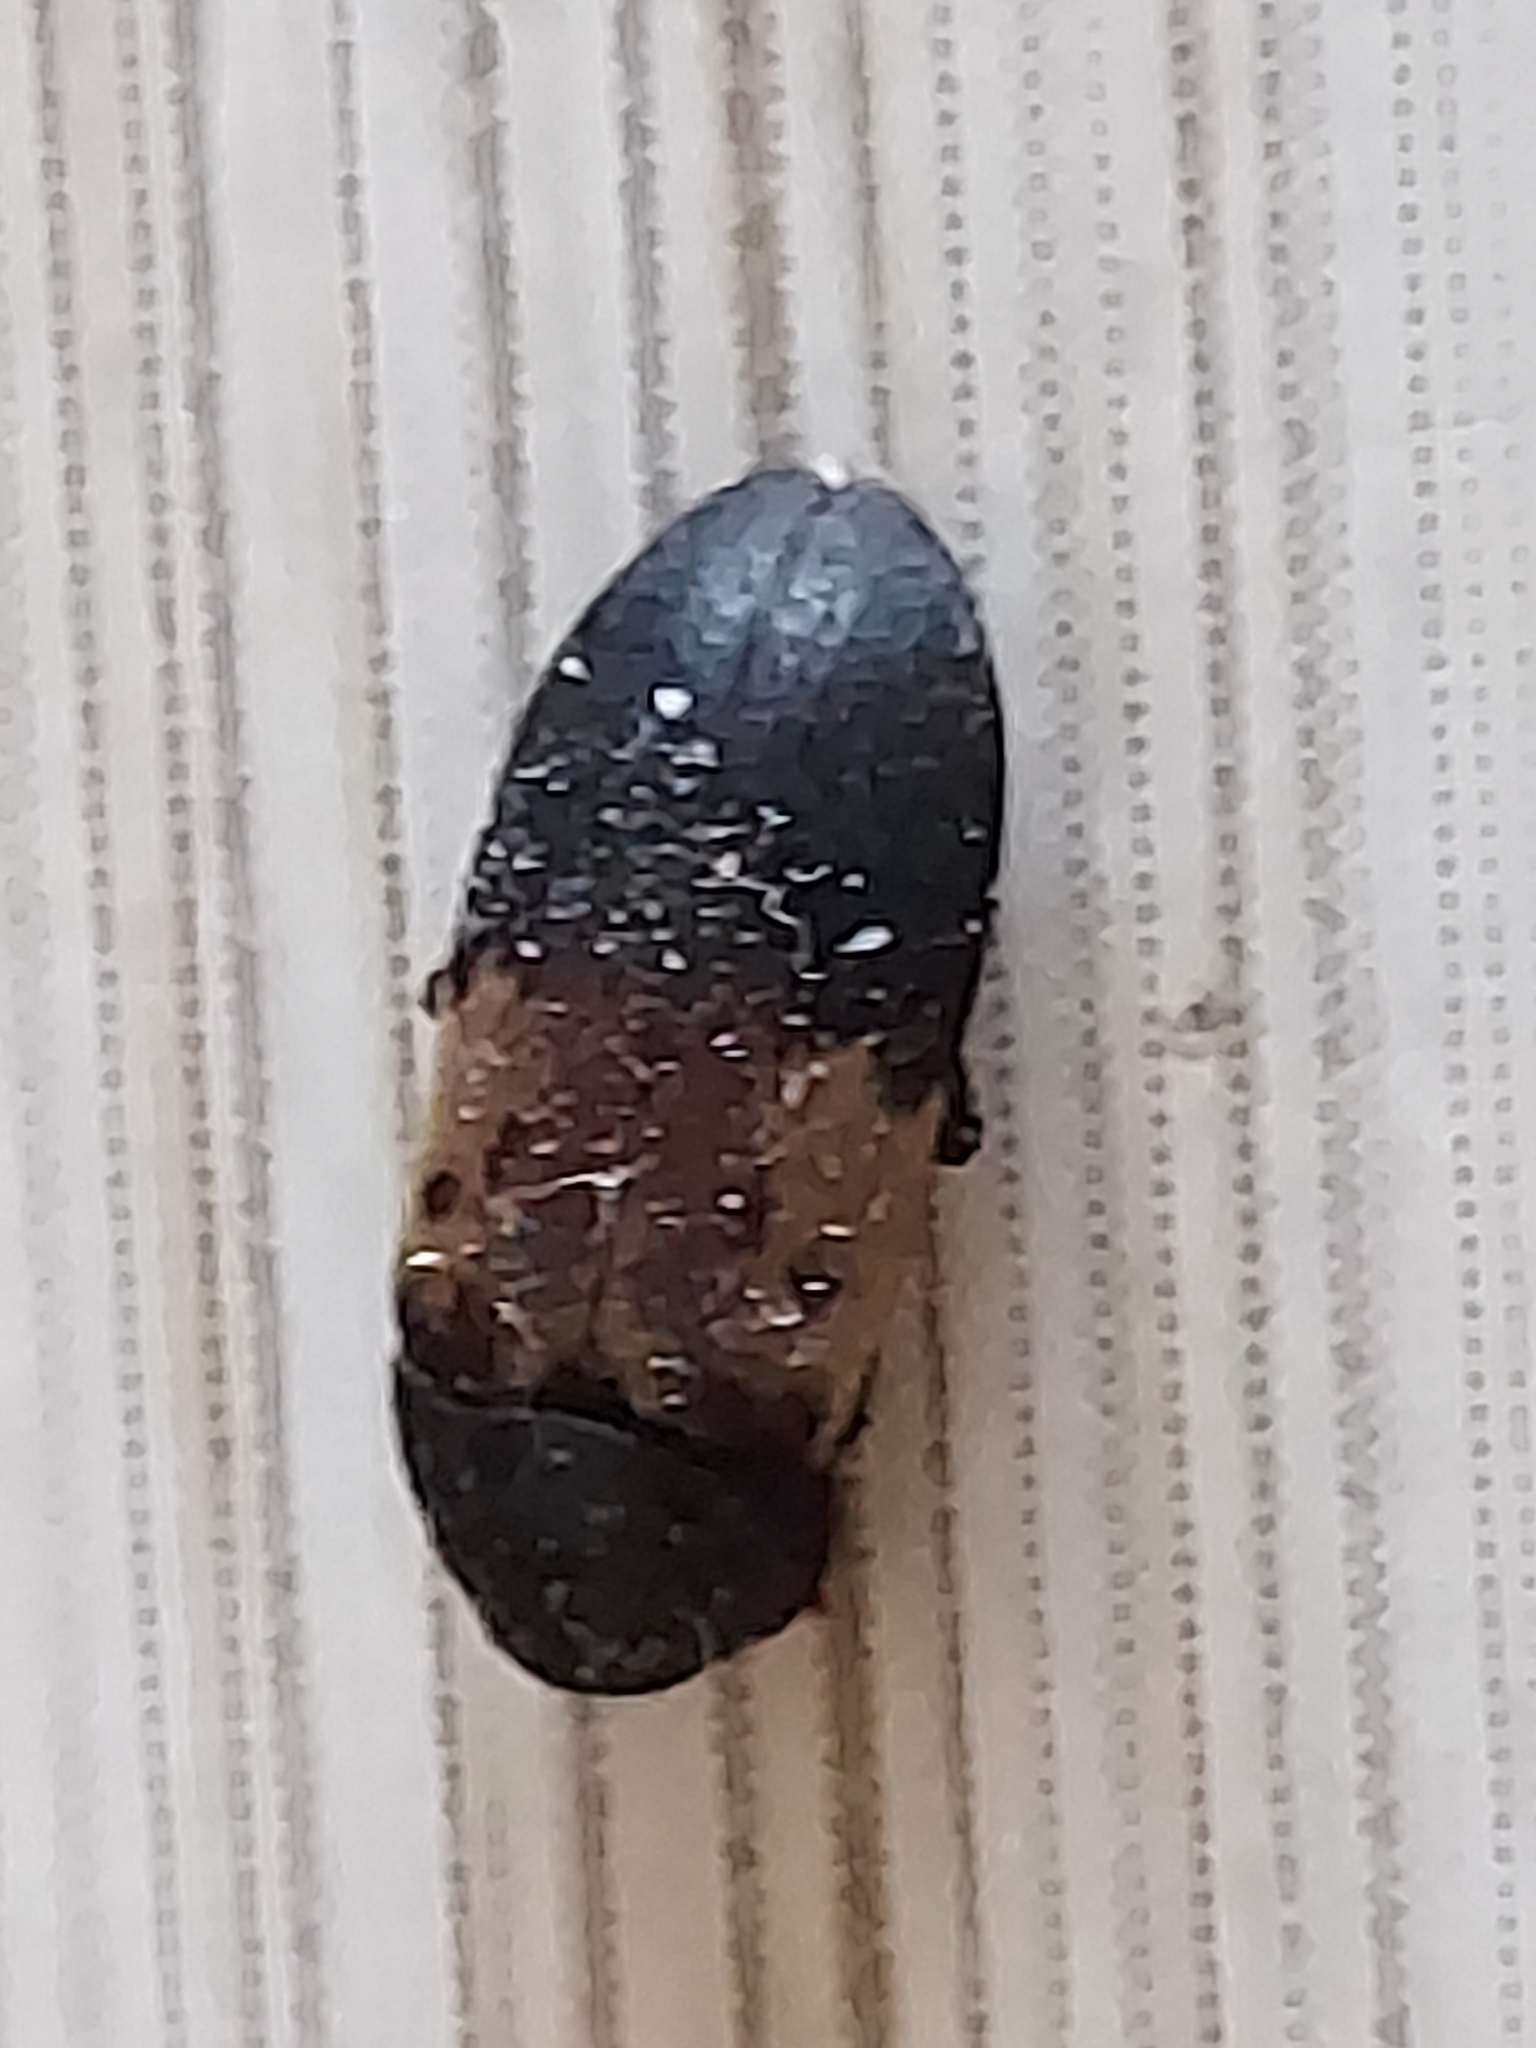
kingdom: Animalia
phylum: Arthropoda
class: Insecta
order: Coleoptera
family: Dermestidae
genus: Dermestes
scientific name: Dermestes lardarius
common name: Larder beetle
